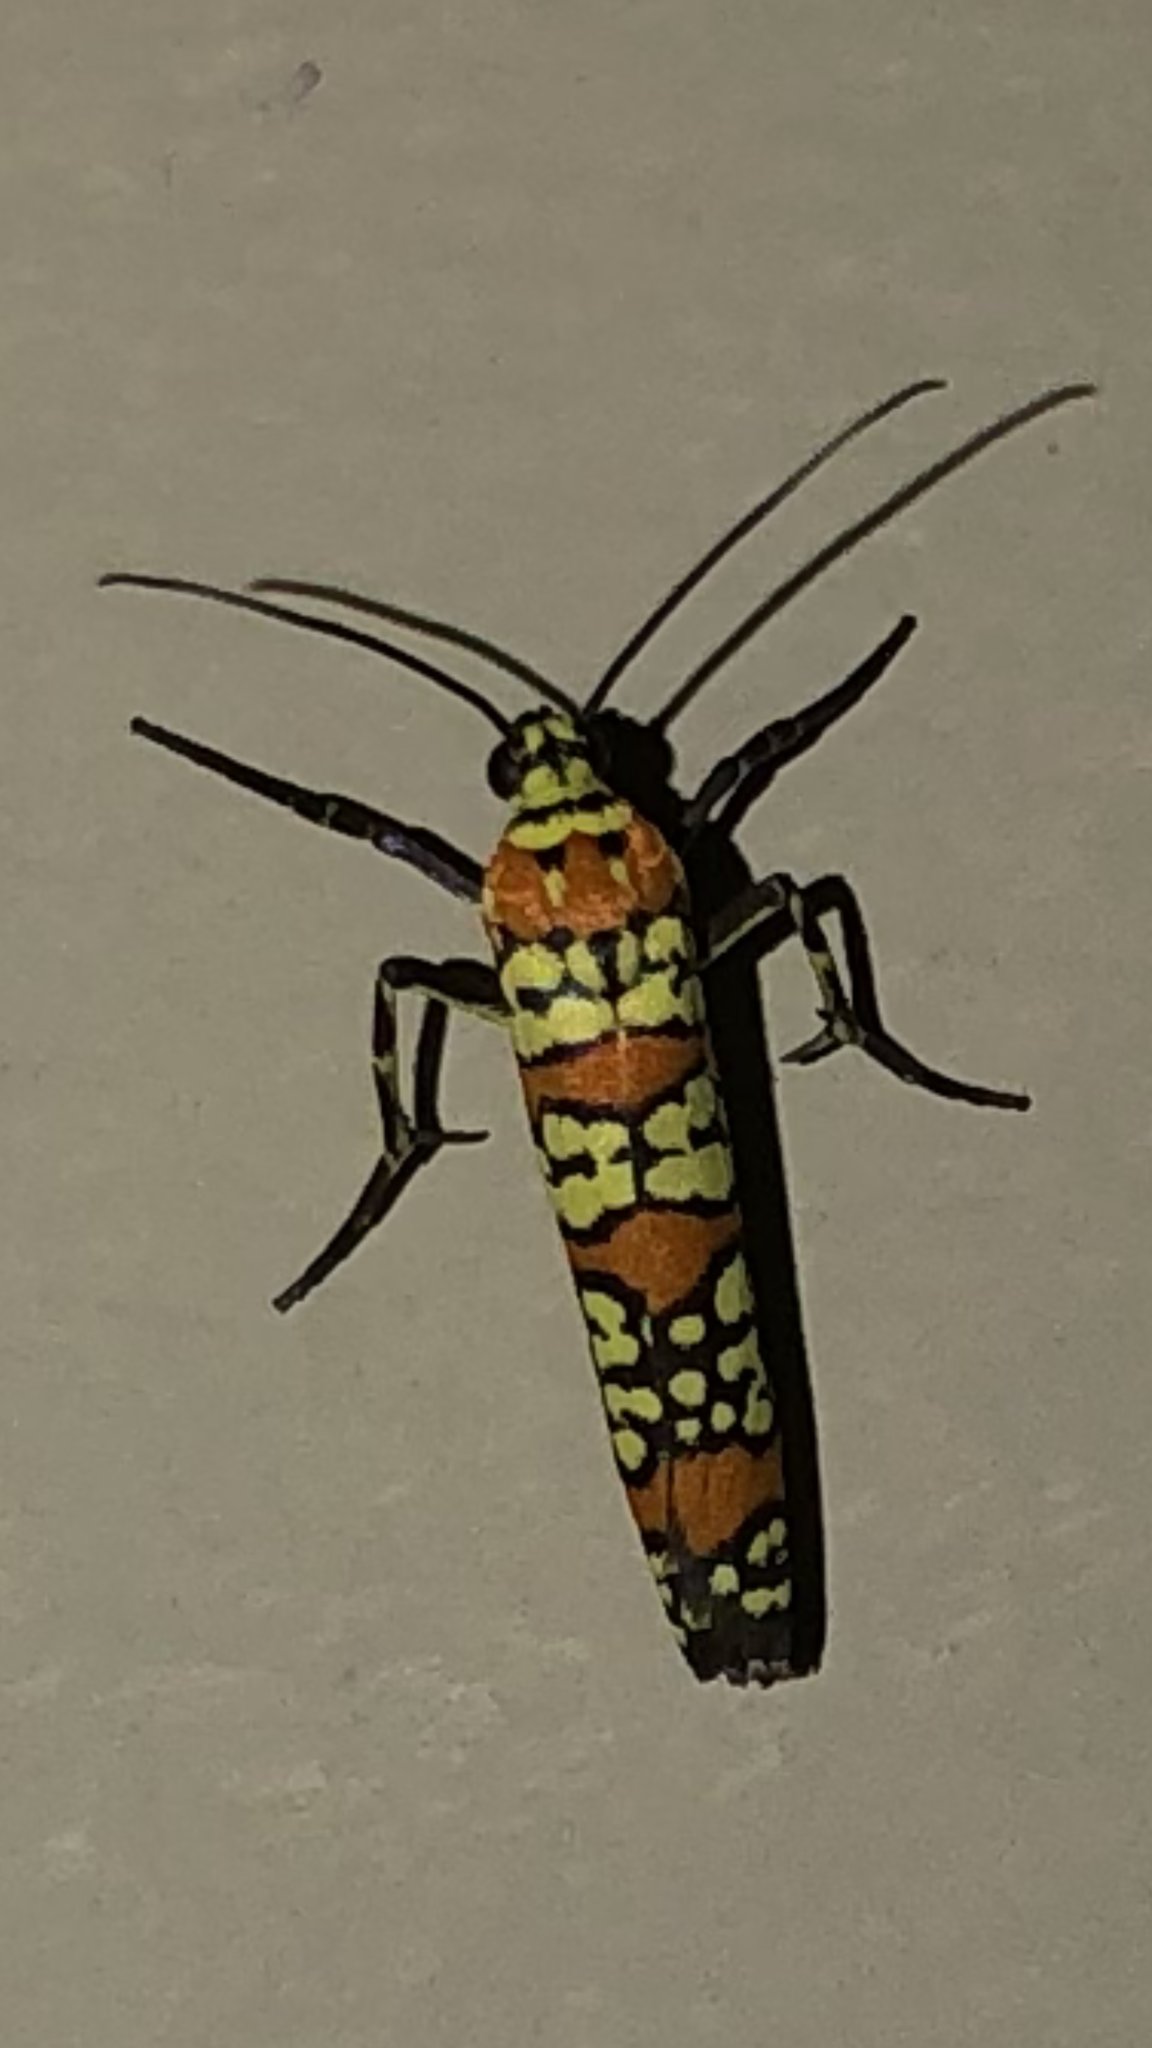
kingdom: Animalia
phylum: Arthropoda
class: Insecta
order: Lepidoptera
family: Attevidae
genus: Atteva
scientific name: Atteva punctella
